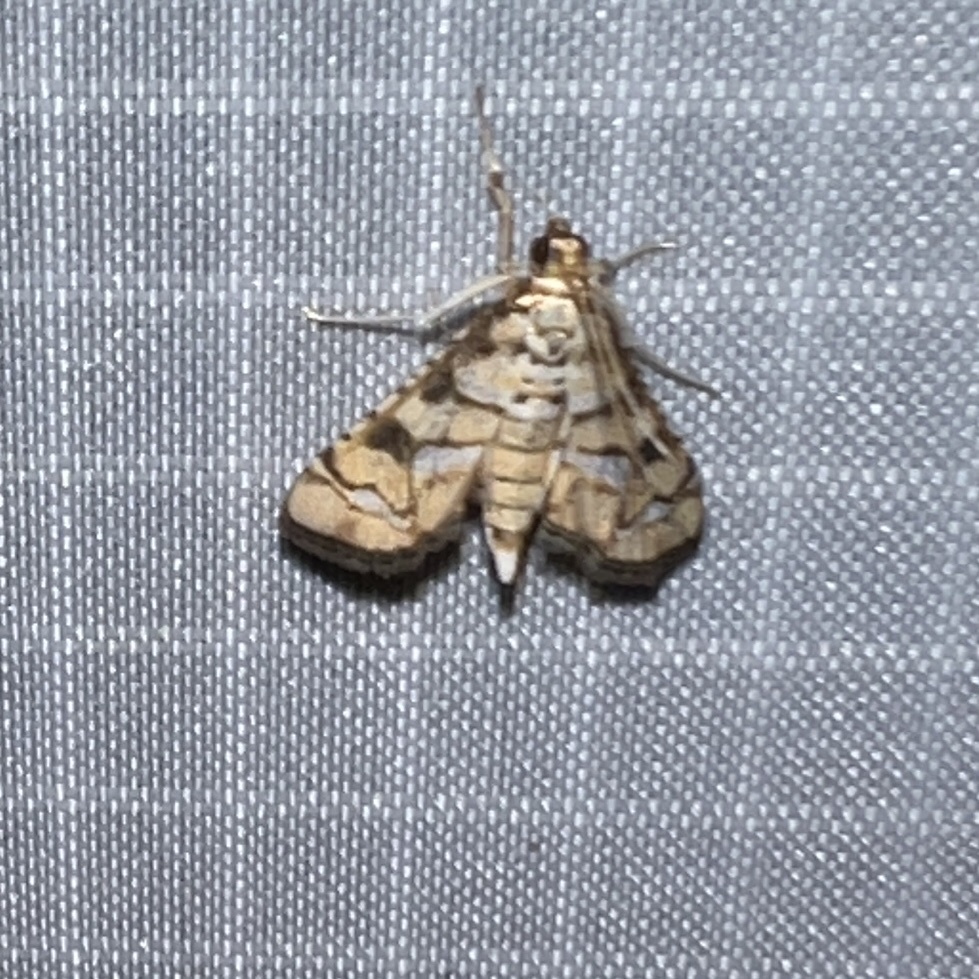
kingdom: Animalia
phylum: Arthropoda
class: Insecta
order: Lepidoptera
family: Crambidae
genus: Hileithia
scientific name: Hileithia magualis
